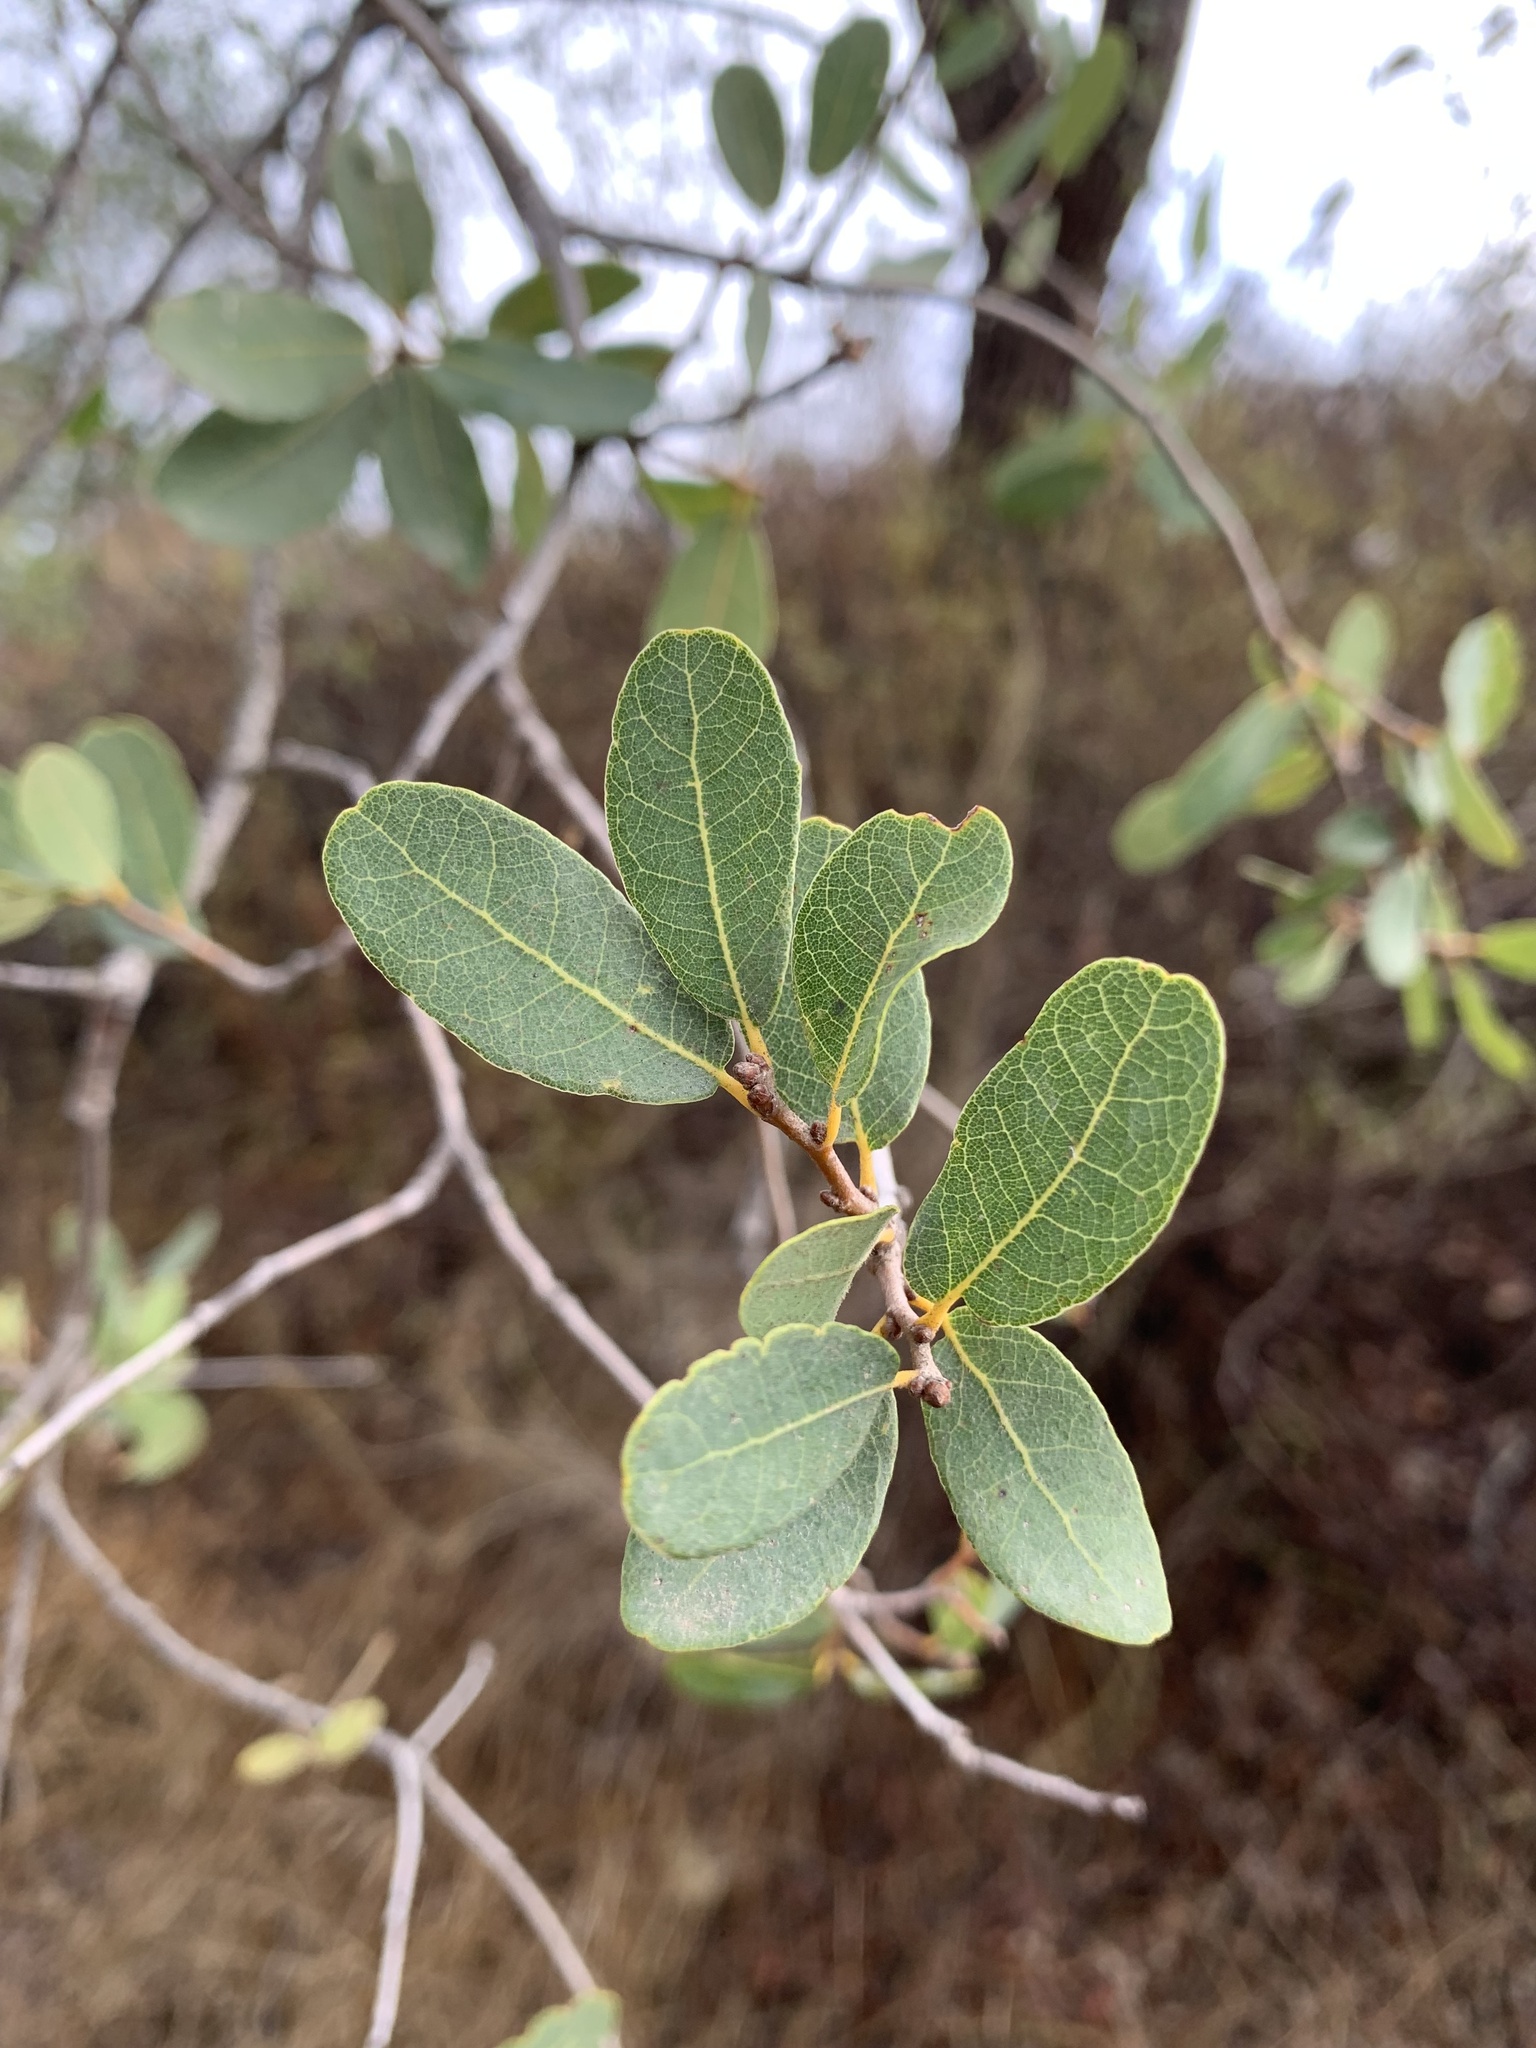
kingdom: Plantae
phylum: Tracheophyta
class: Magnoliopsida
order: Fagales
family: Fagaceae
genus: Quercus
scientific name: Quercus engelmannii
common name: Engelmann oak
